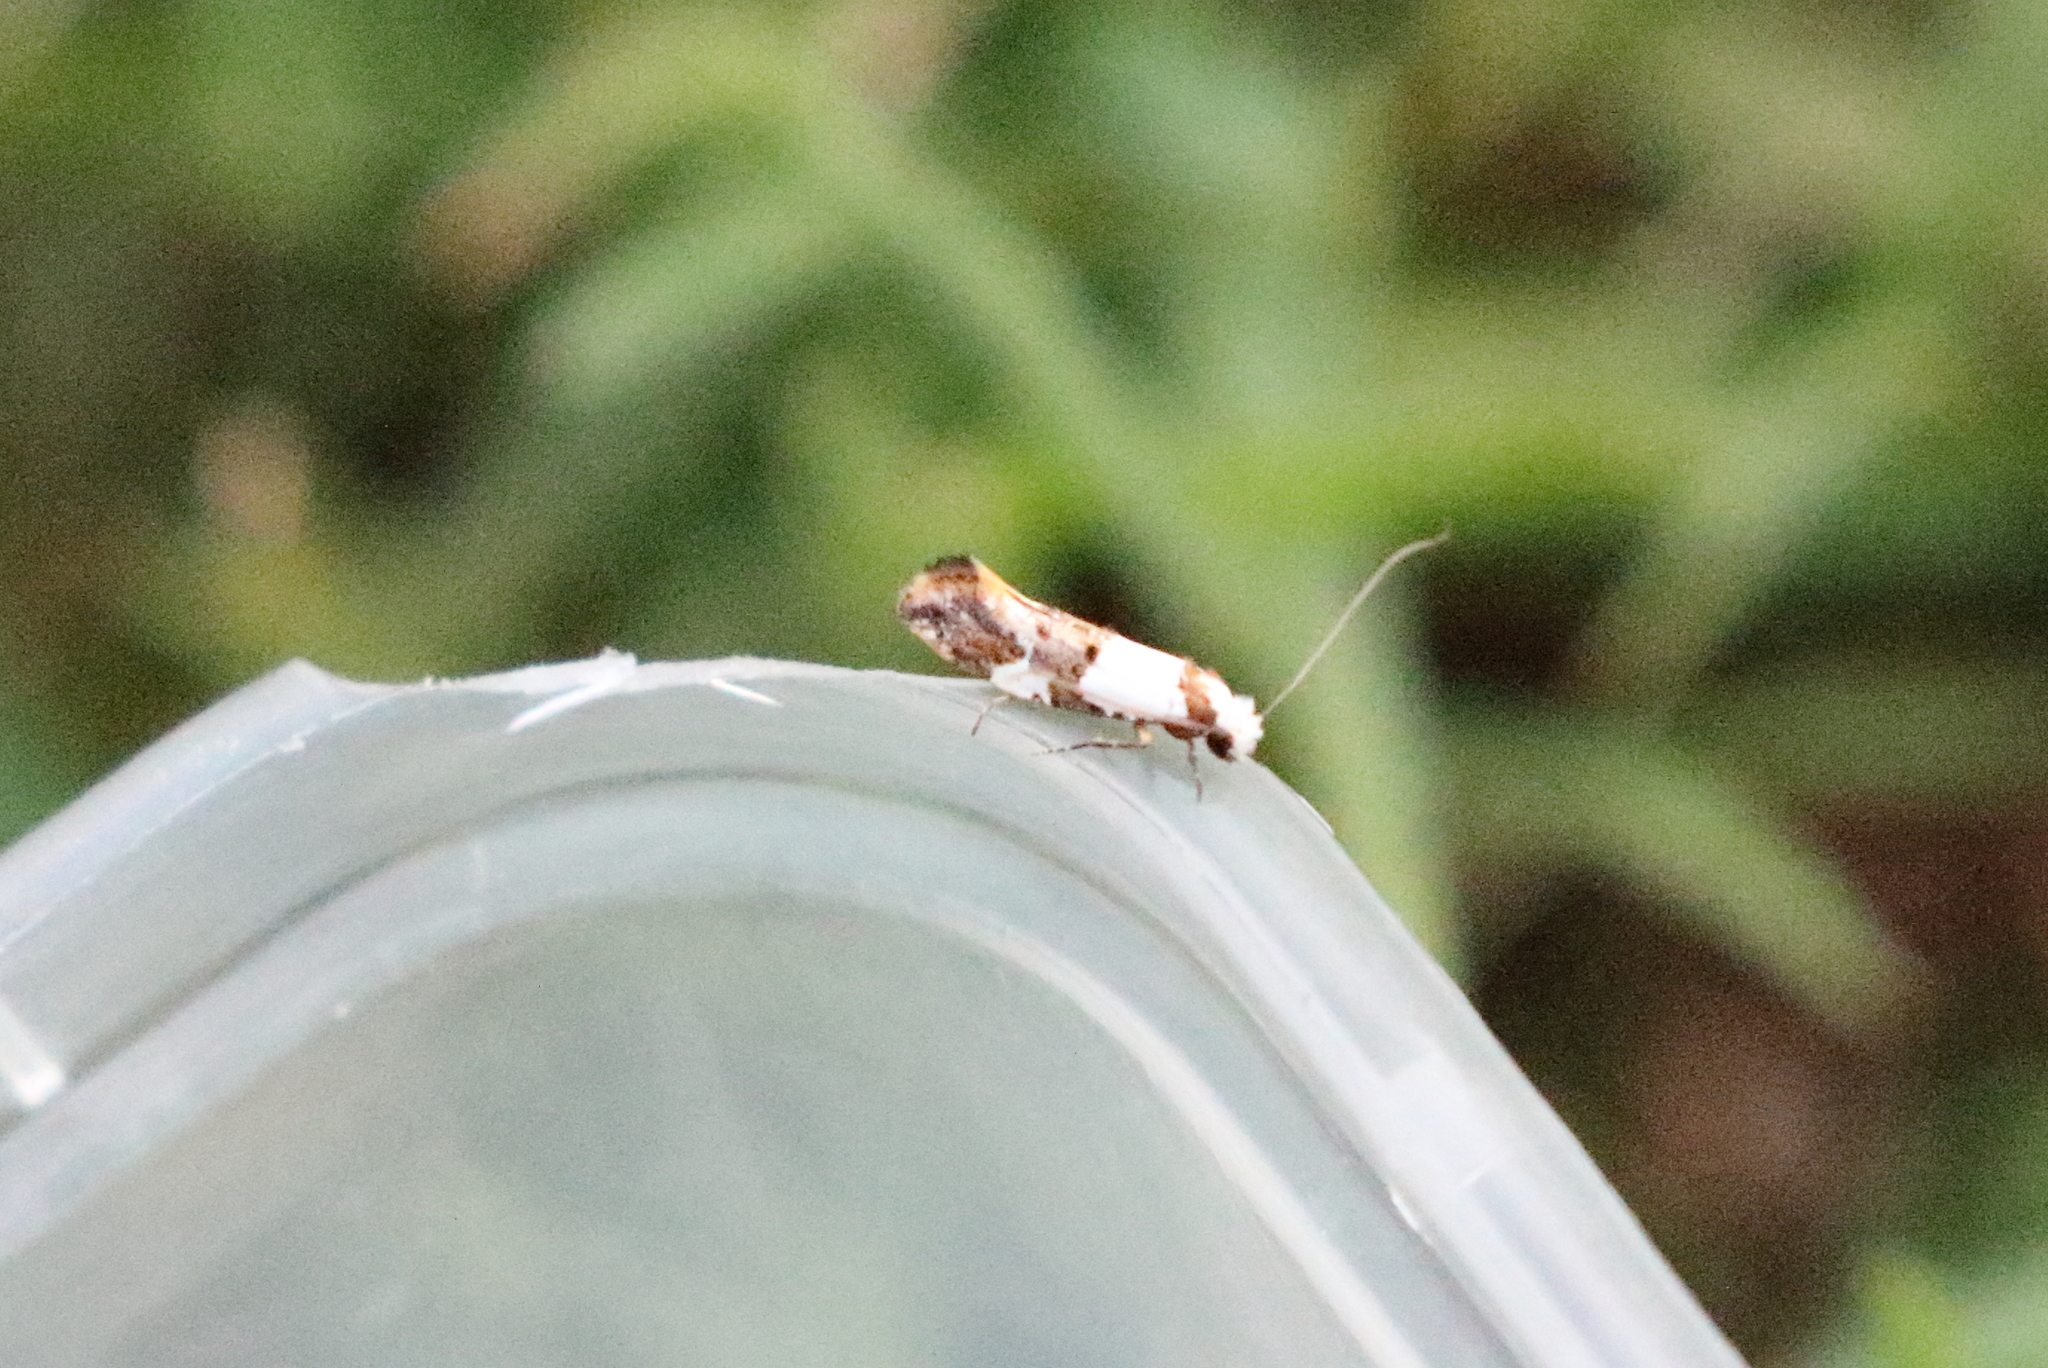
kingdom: Animalia
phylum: Arthropoda
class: Insecta
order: Lepidoptera
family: Tineidae
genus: Monopis
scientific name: Monopis meliorella
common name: Blotched monopis moth
